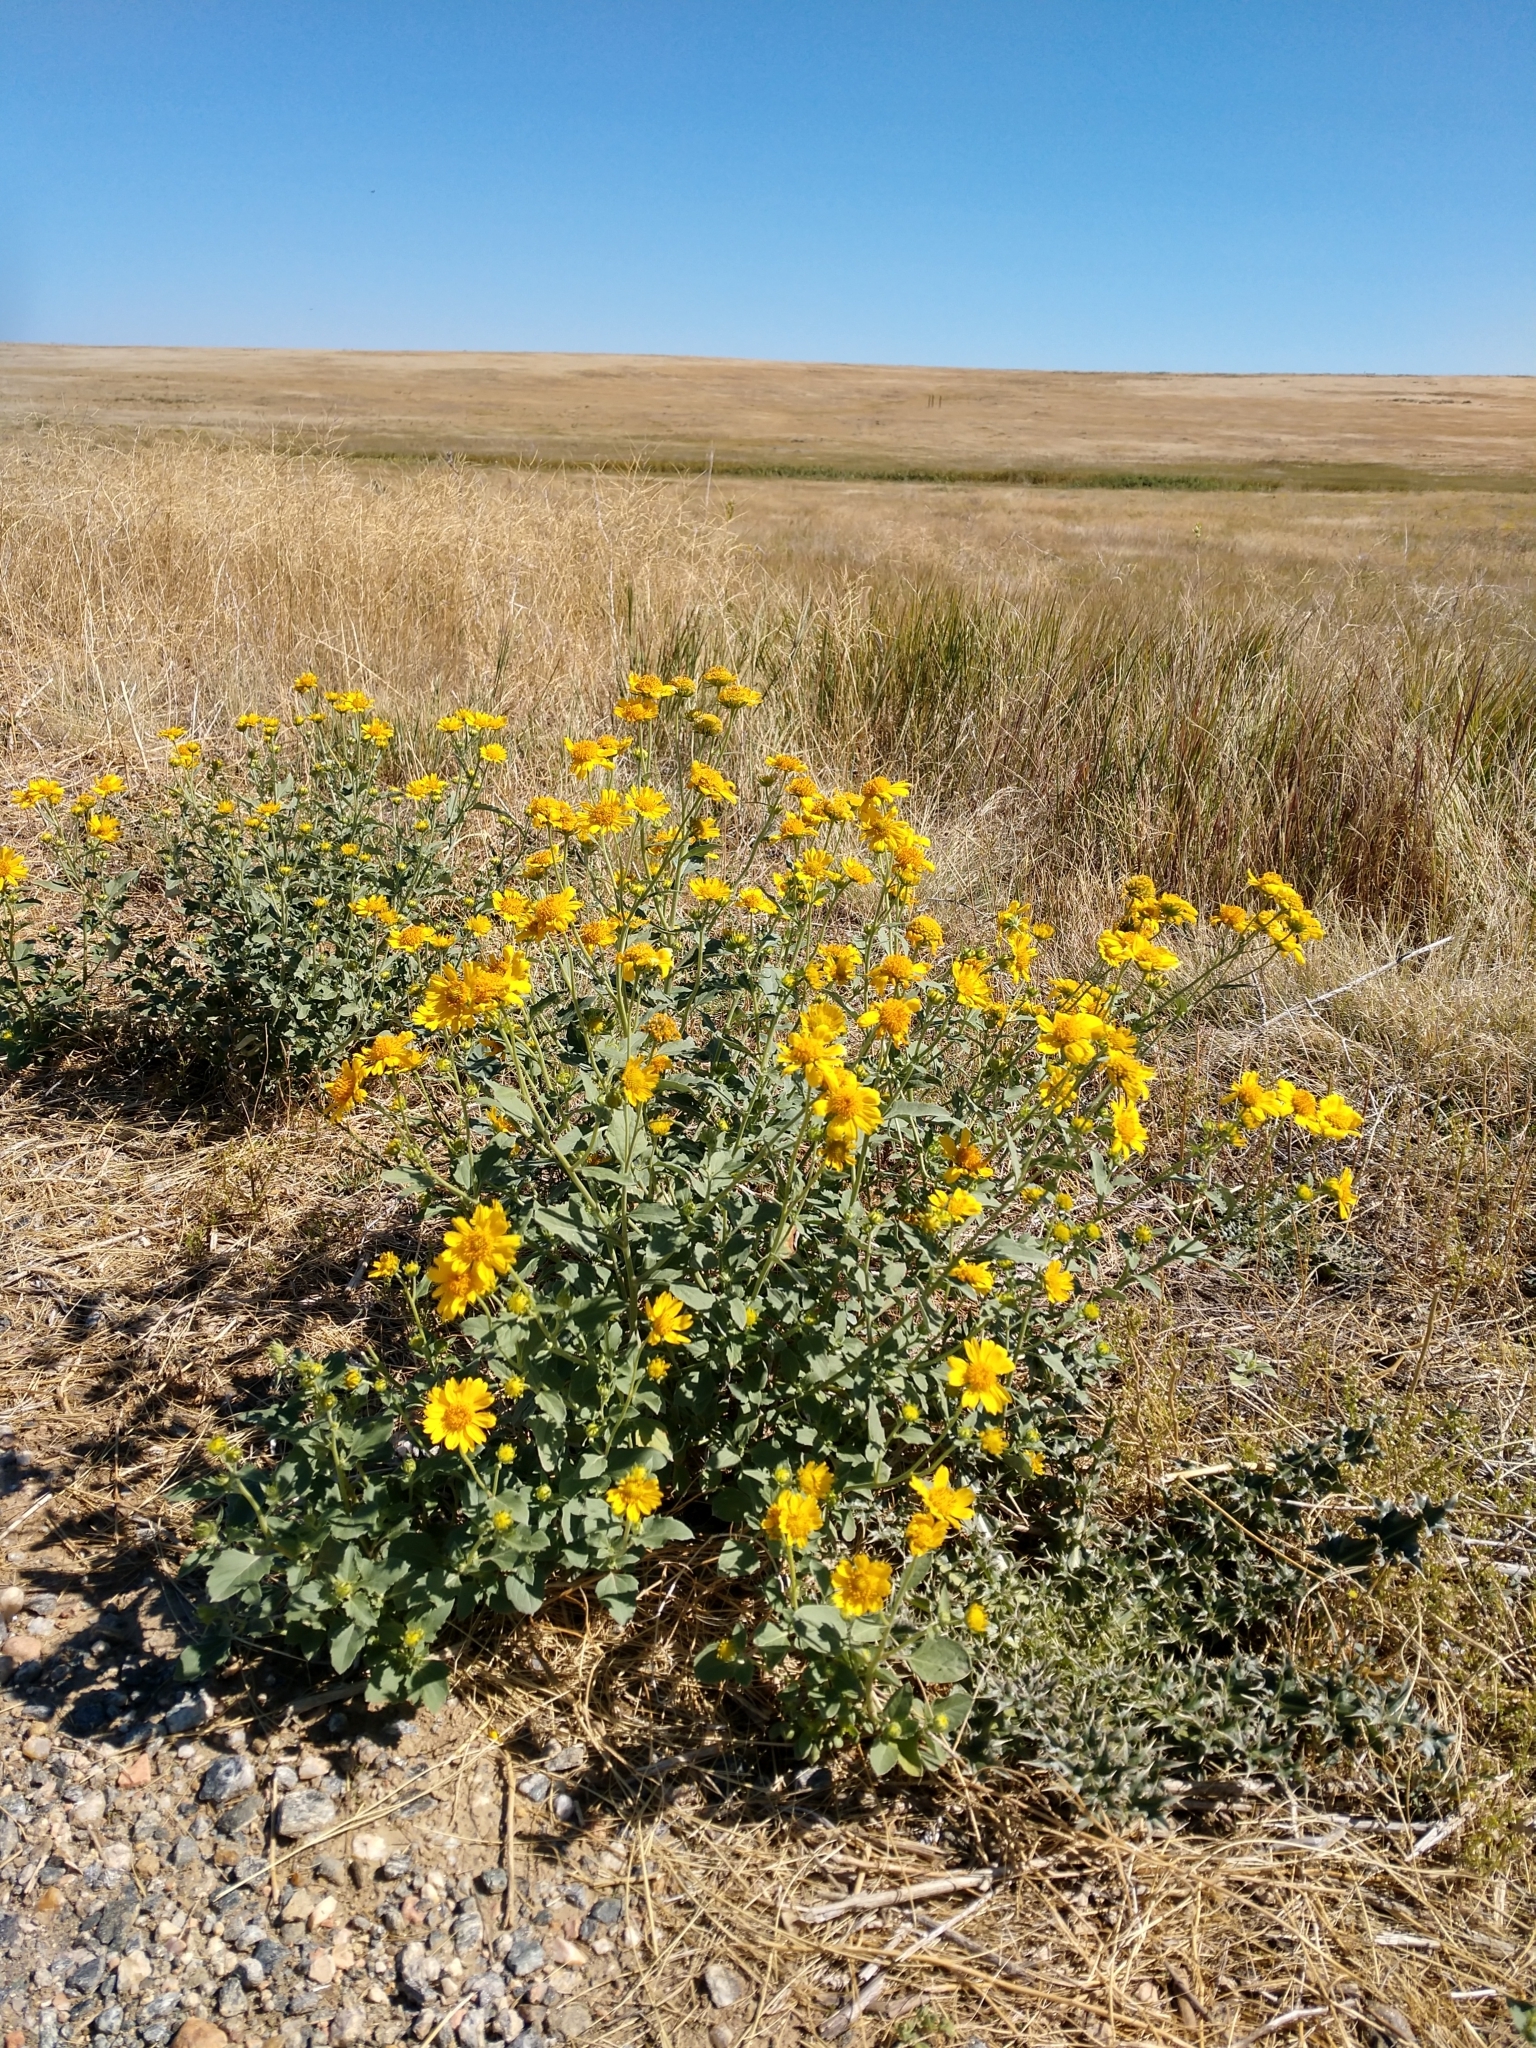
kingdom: Plantae
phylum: Tracheophyta
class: Magnoliopsida
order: Asterales
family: Asteraceae
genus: Verbesina
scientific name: Verbesina encelioides
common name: Golden crownbeard
